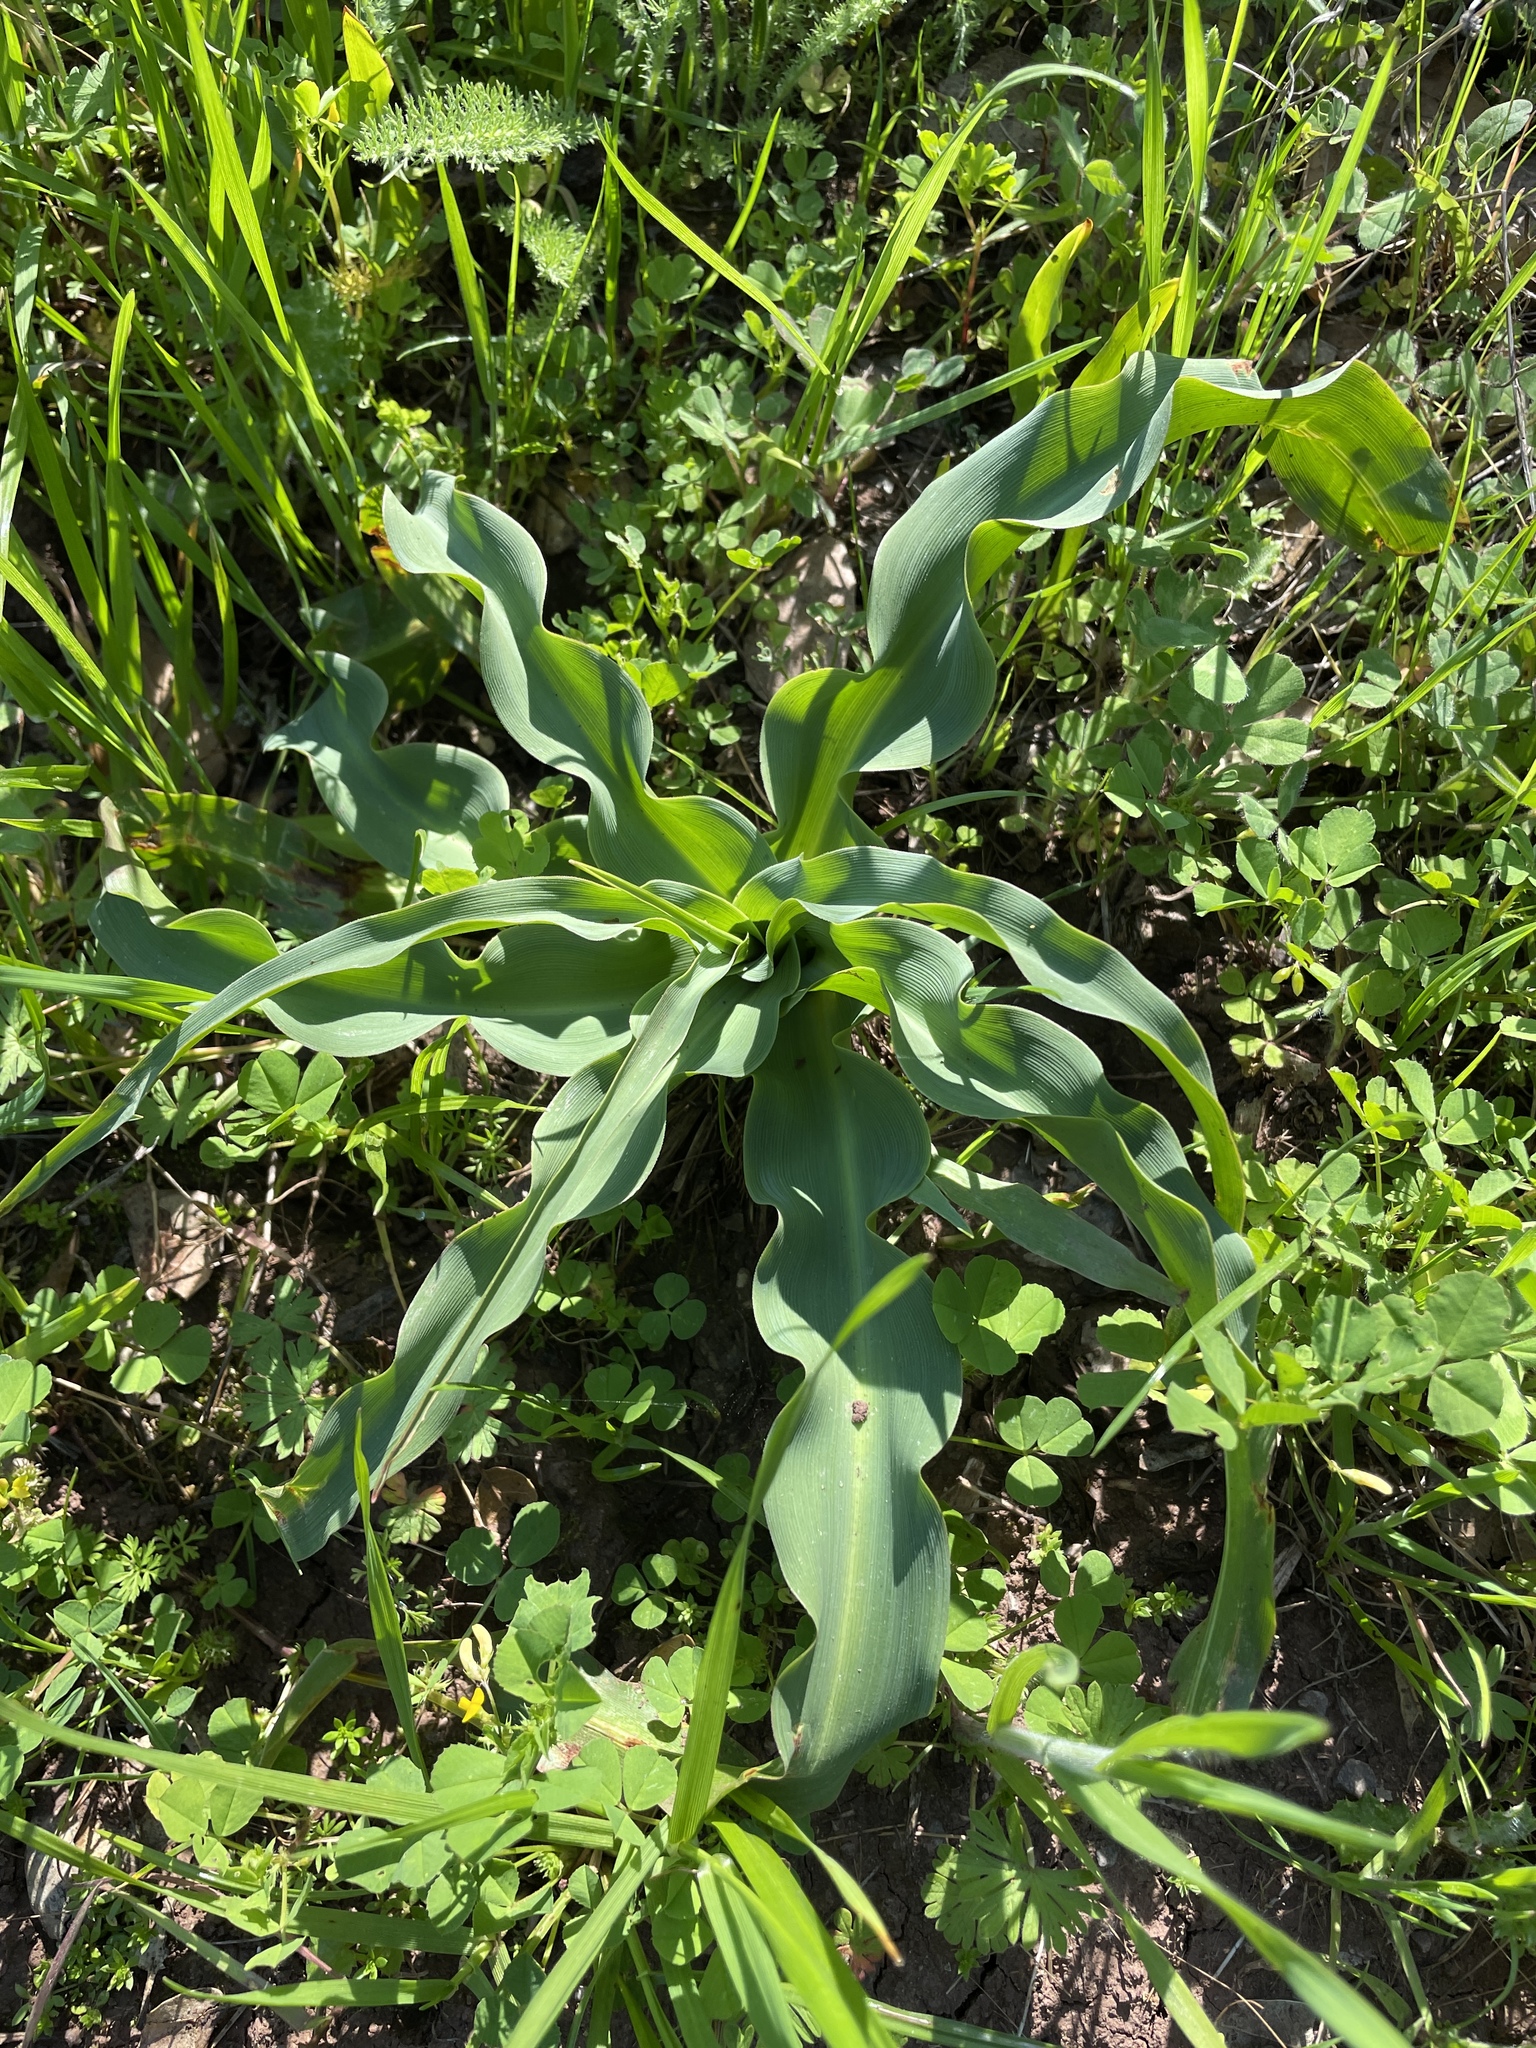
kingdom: Plantae
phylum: Tracheophyta
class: Liliopsida
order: Asparagales
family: Asparagaceae
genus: Chlorogalum
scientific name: Chlorogalum pomeridianum
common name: Amole
